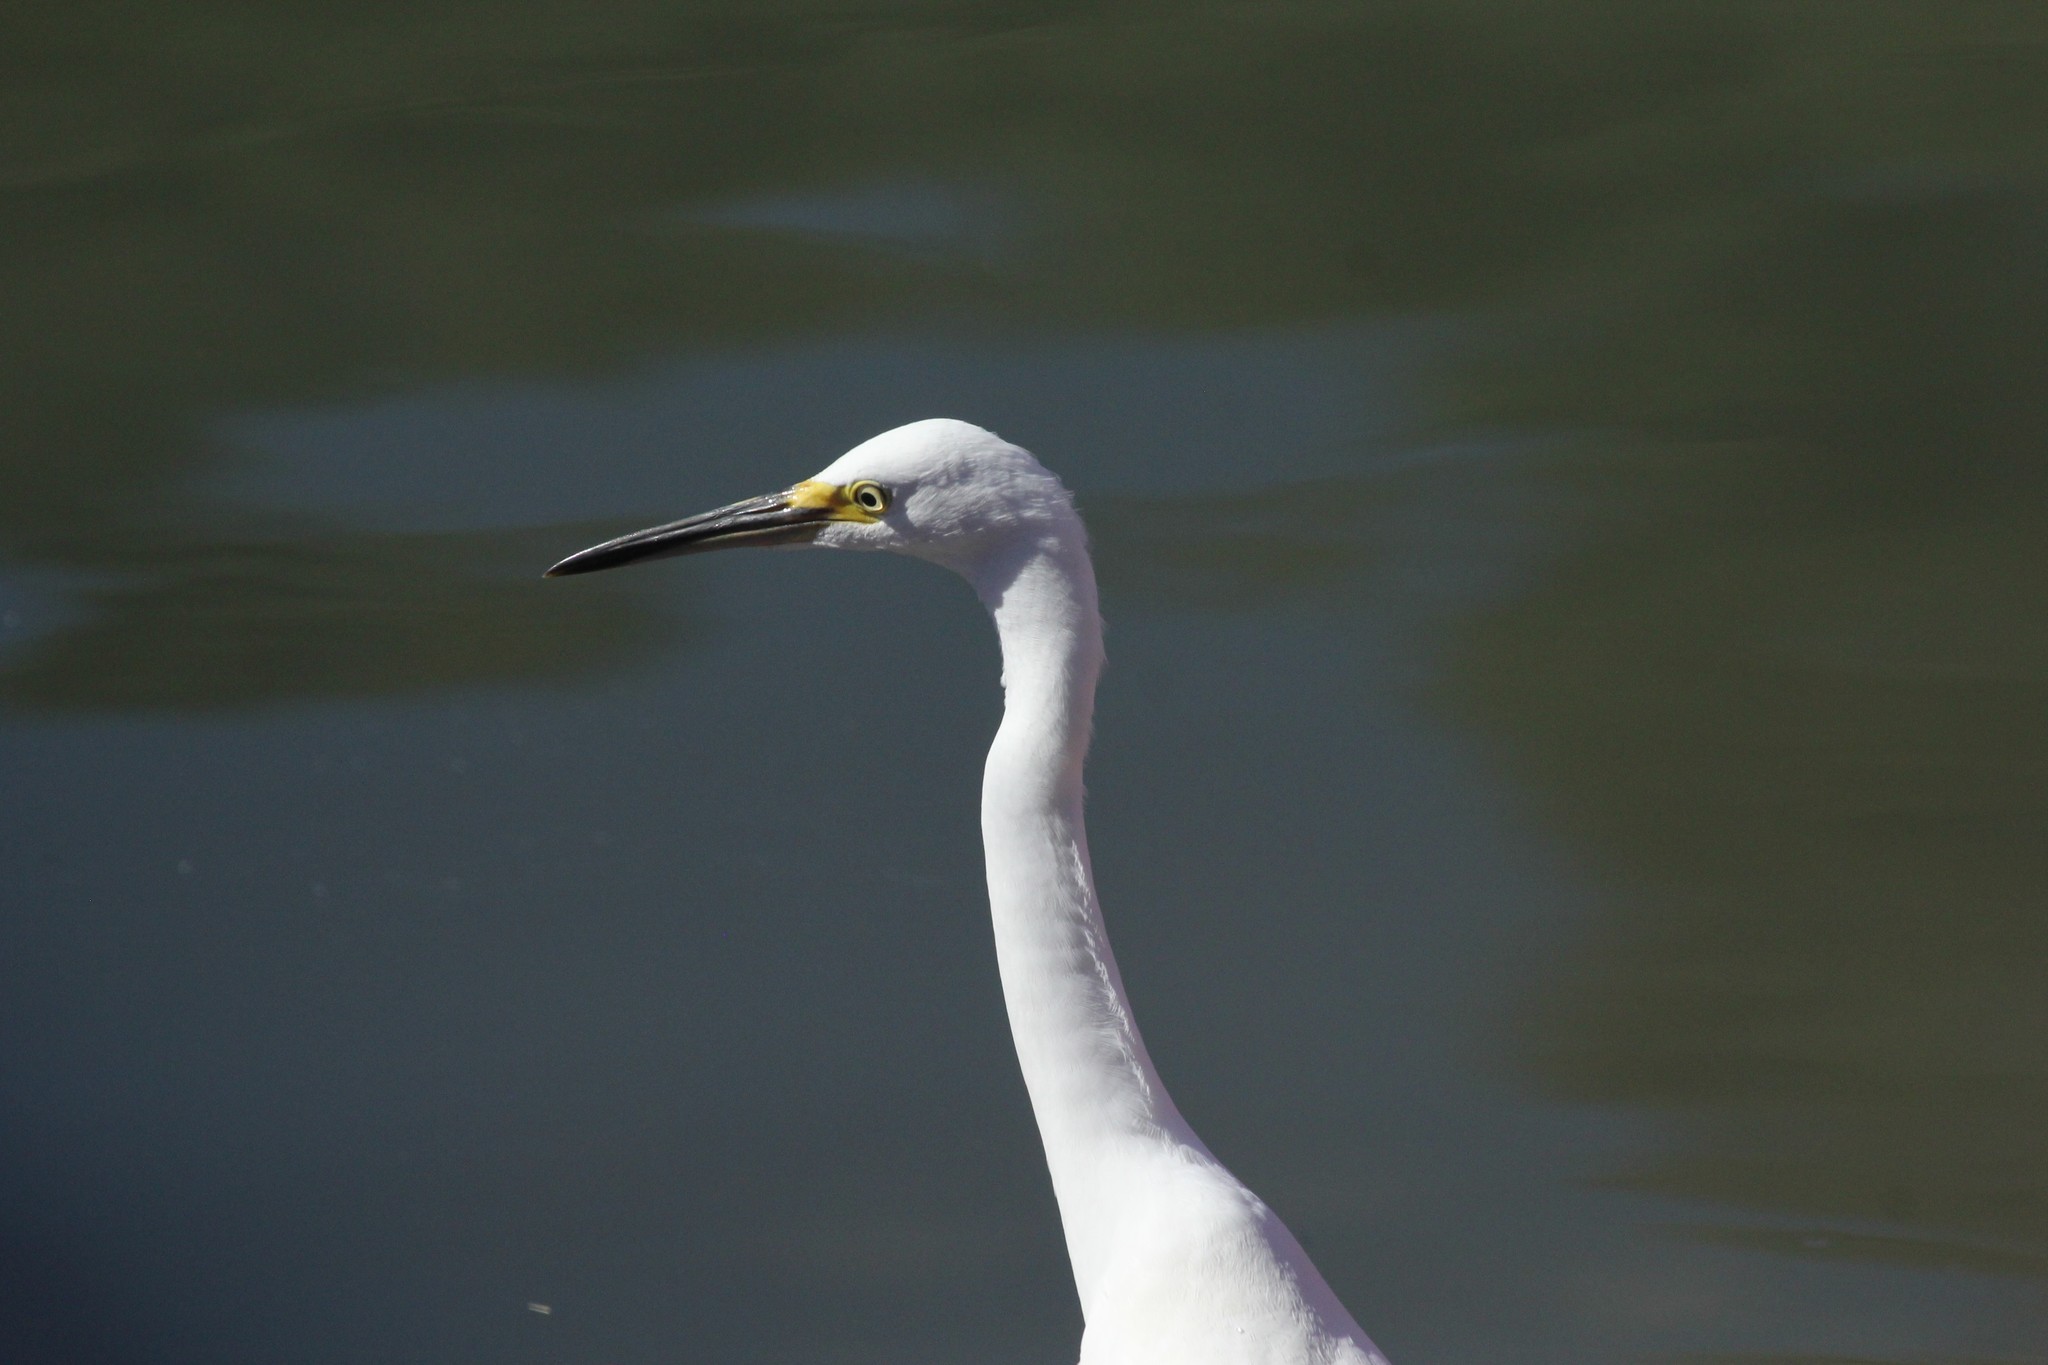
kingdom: Animalia
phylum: Chordata
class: Aves
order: Pelecaniformes
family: Ardeidae
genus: Egretta
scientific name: Egretta thula
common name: Snowy egret
